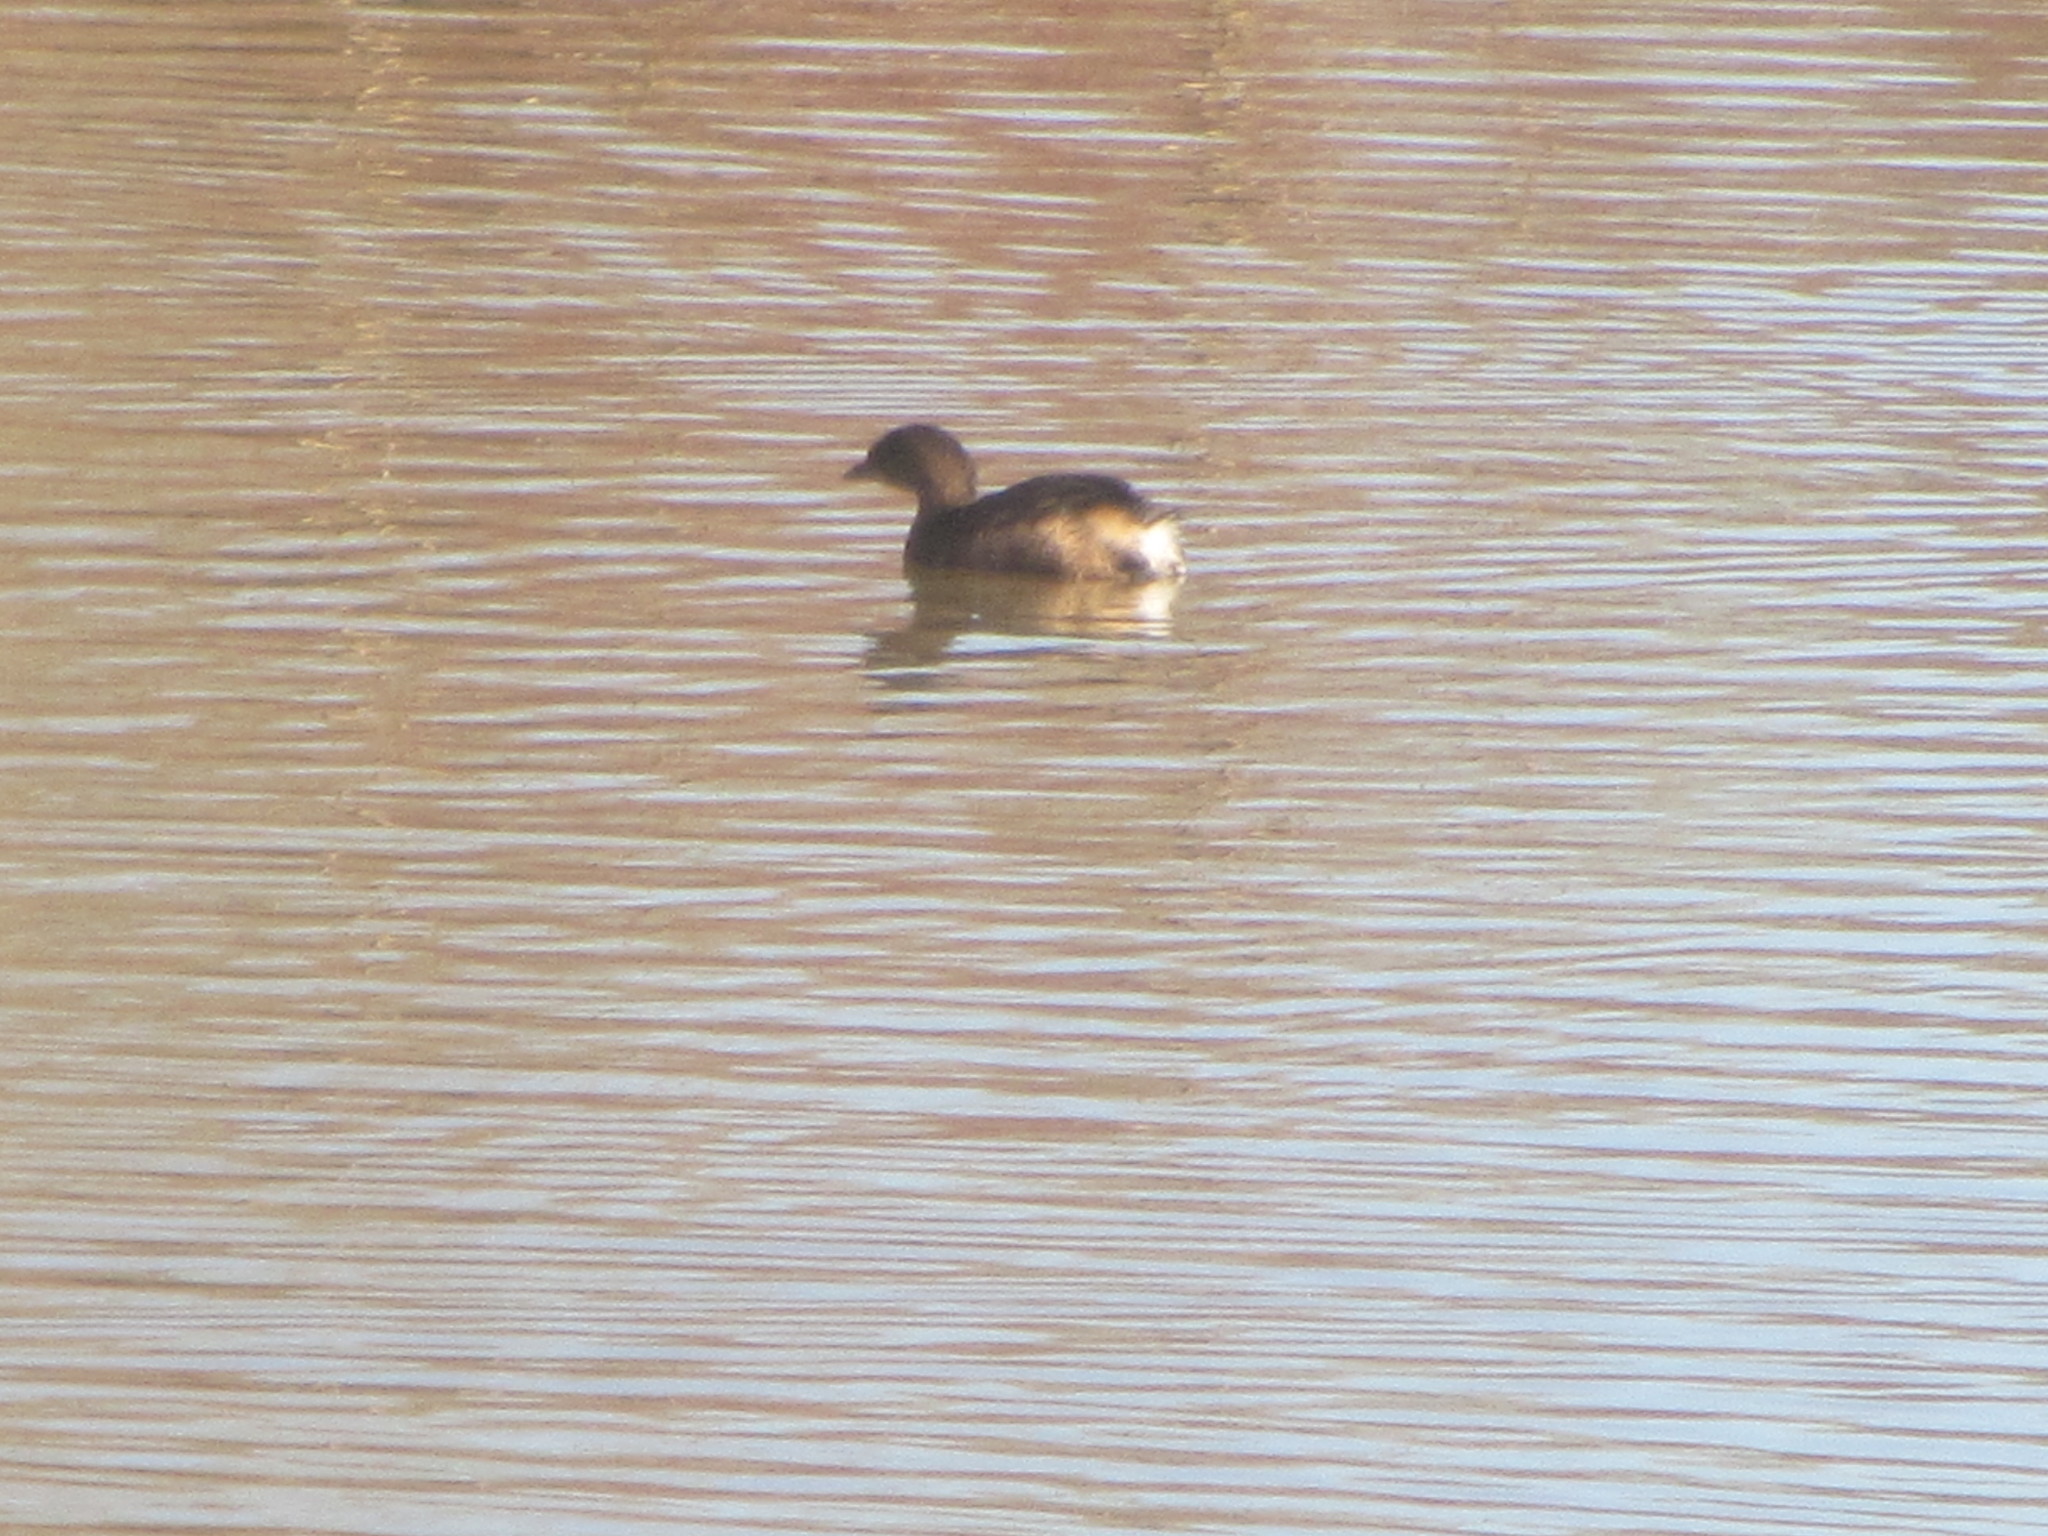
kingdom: Animalia
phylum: Chordata
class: Aves
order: Podicipediformes
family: Podicipedidae
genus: Podilymbus
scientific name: Podilymbus podiceps
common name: Pied-billed grebe
